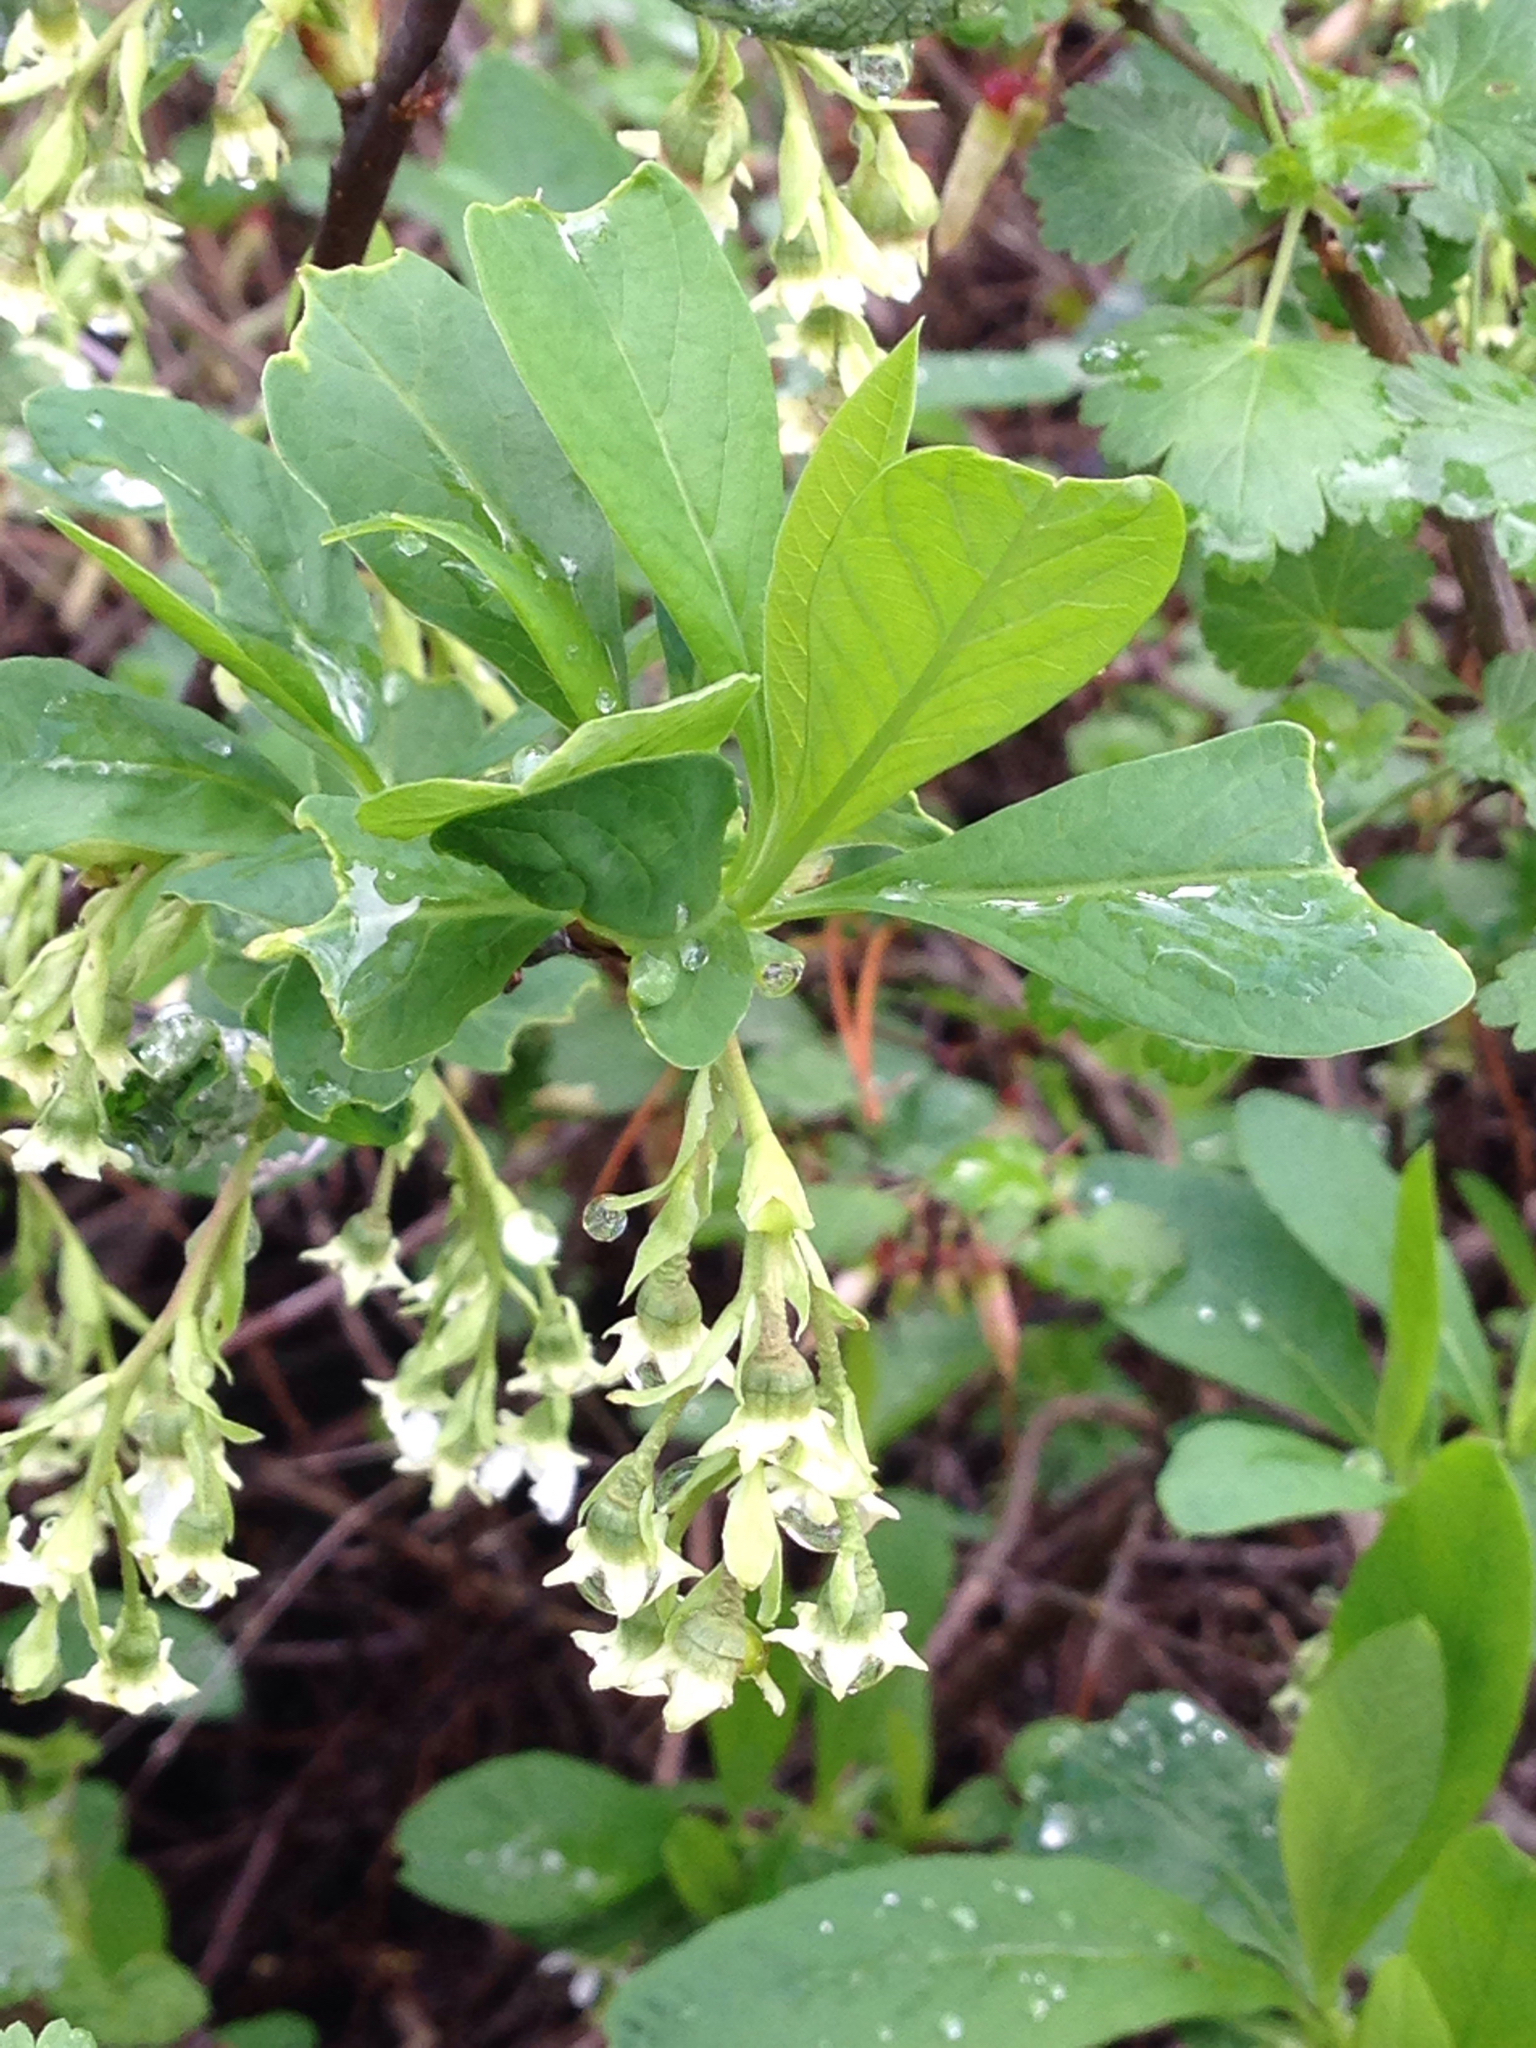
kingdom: Plantae
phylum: Tracheophyta
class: Magnoliopsida
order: Rosales
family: Rosaceae
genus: Oemleria
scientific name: Oemleria cerasiformis
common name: Osoberry
